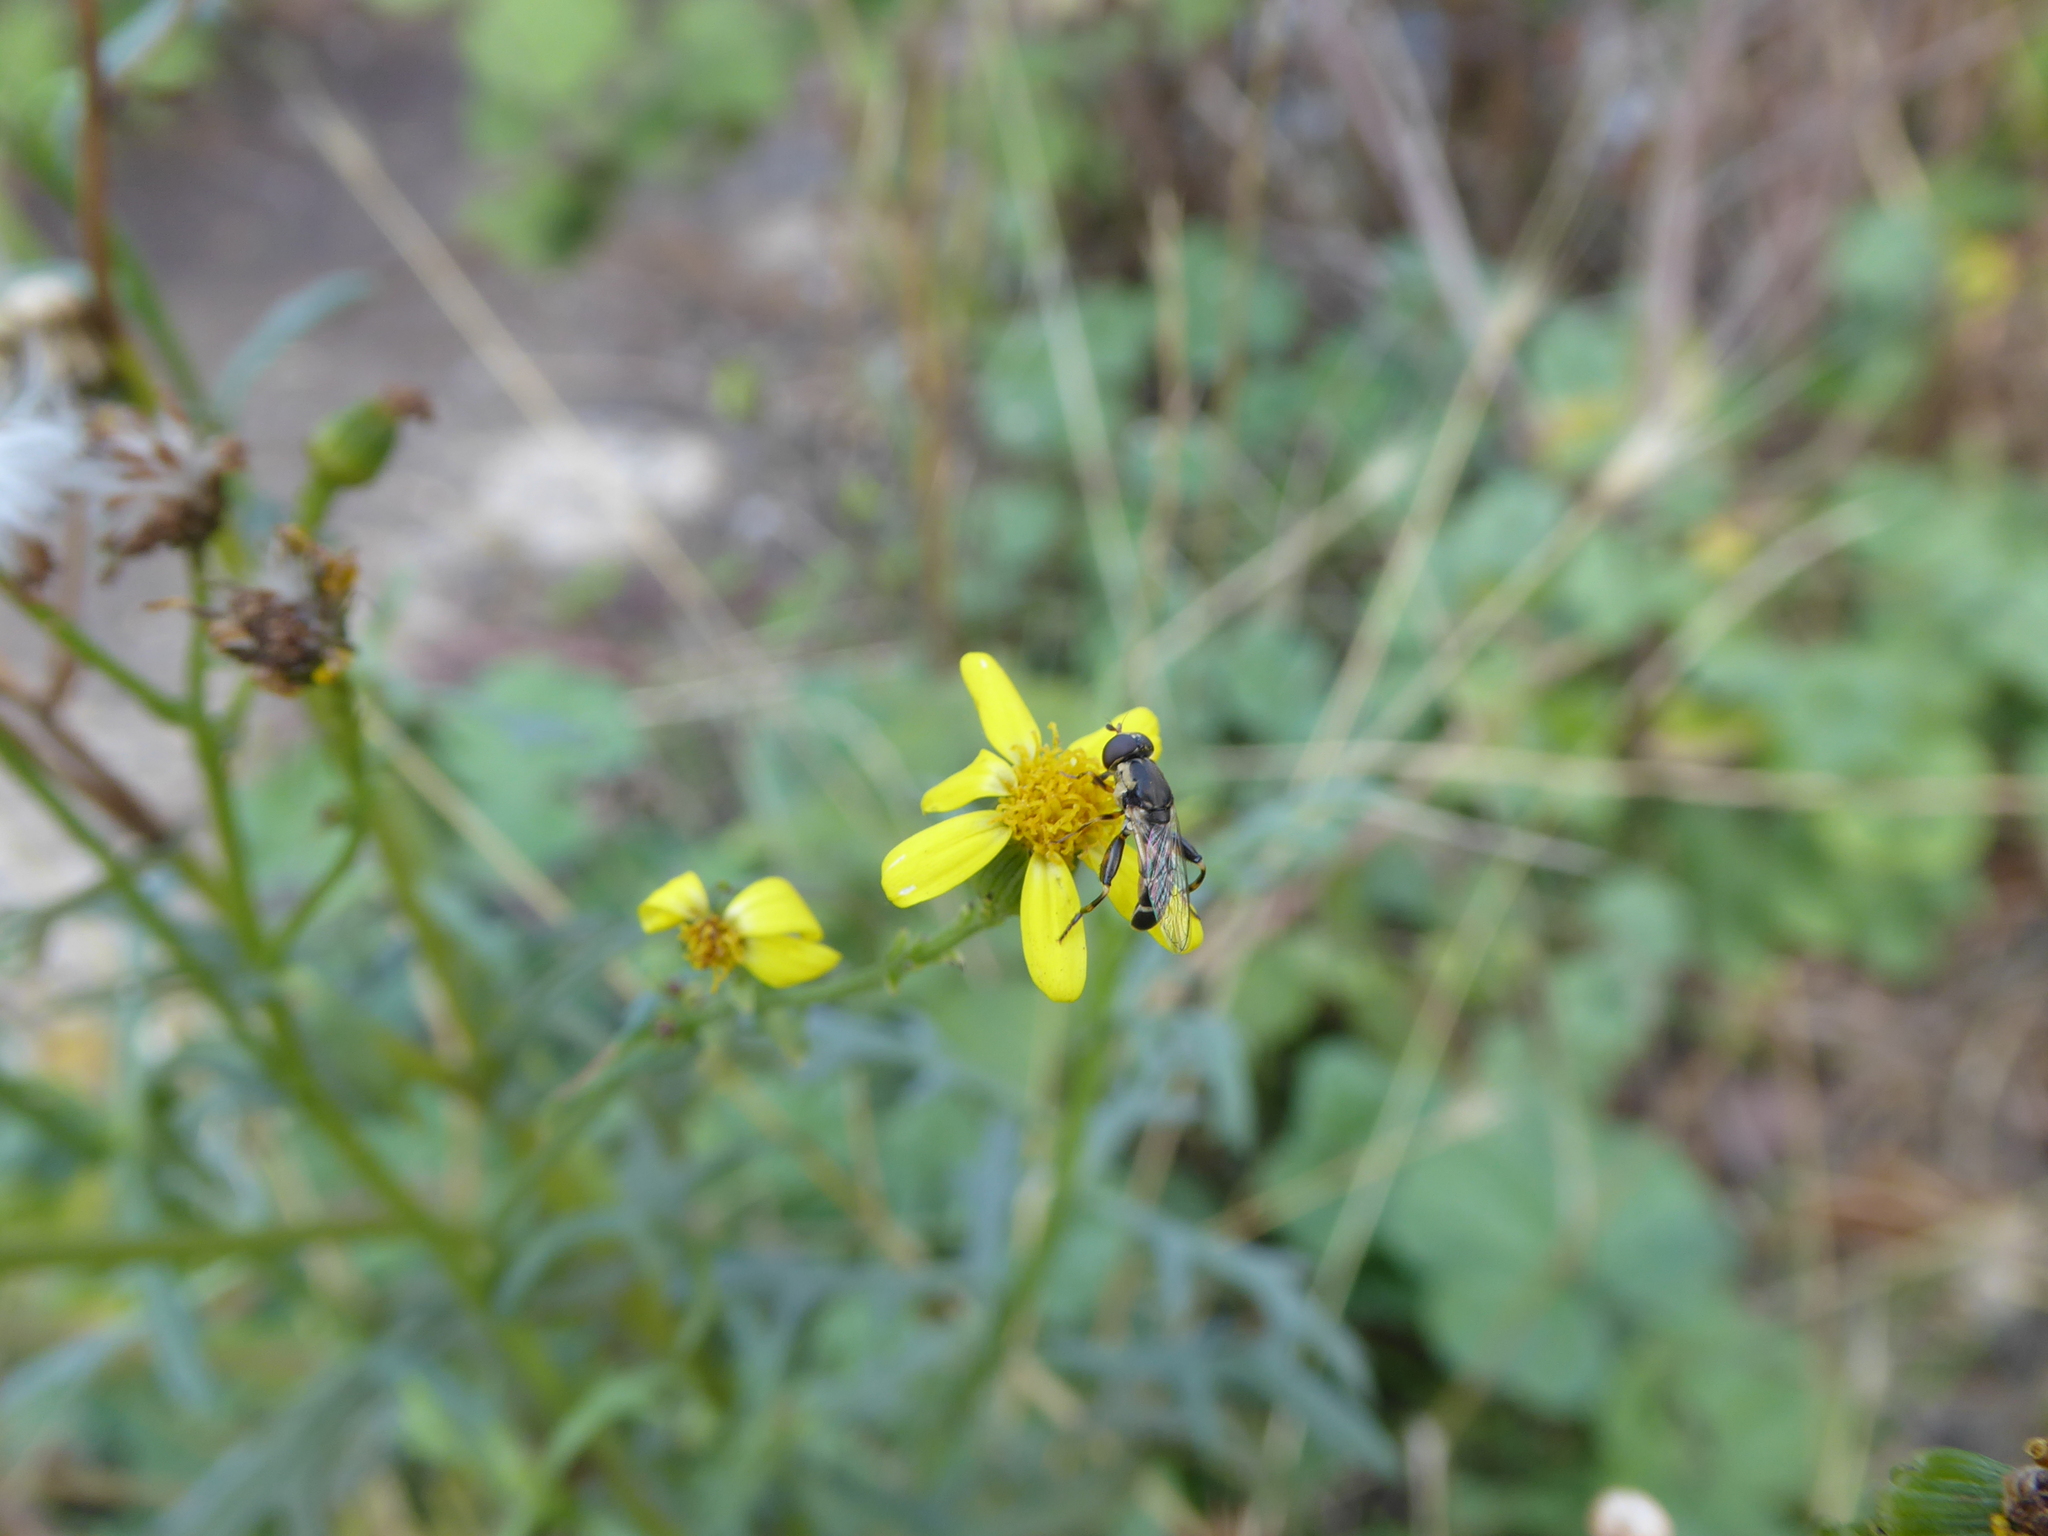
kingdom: Animalia
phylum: Arthropoda
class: Insecta
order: Diptera
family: Syrphidae
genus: Syritta
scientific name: Syritta pipiens
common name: Hover fly
